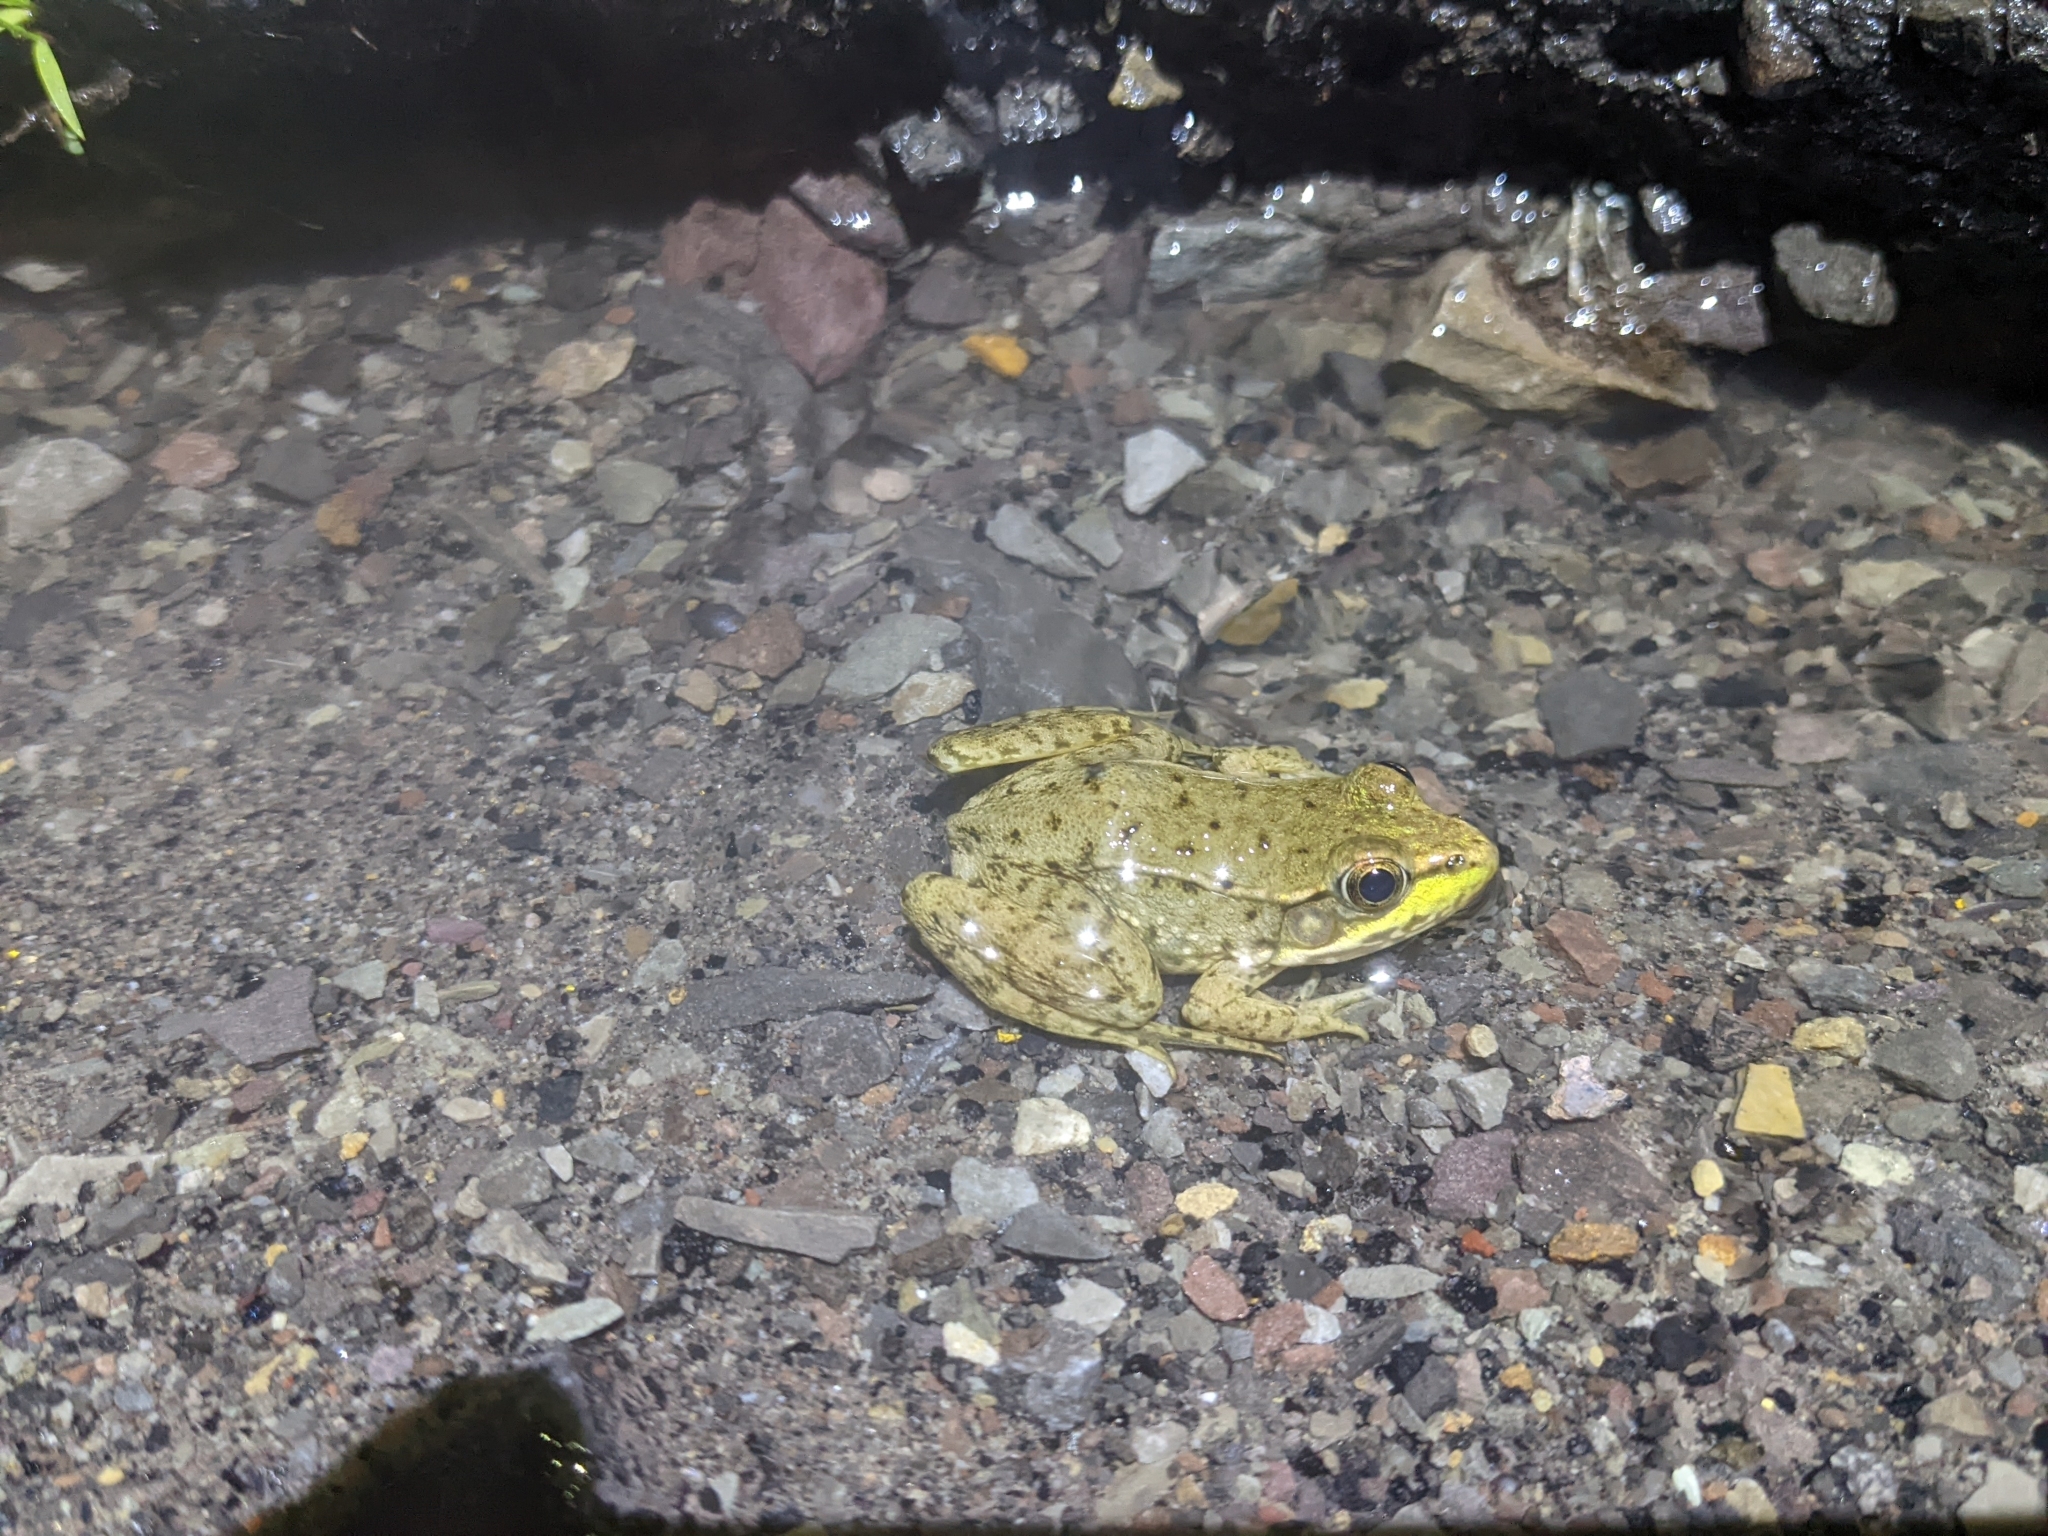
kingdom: Animalia
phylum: Chordata
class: Amphibia
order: Anura
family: Ranidae
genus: Lithobates
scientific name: Lithobates clamitans
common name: Green frog
